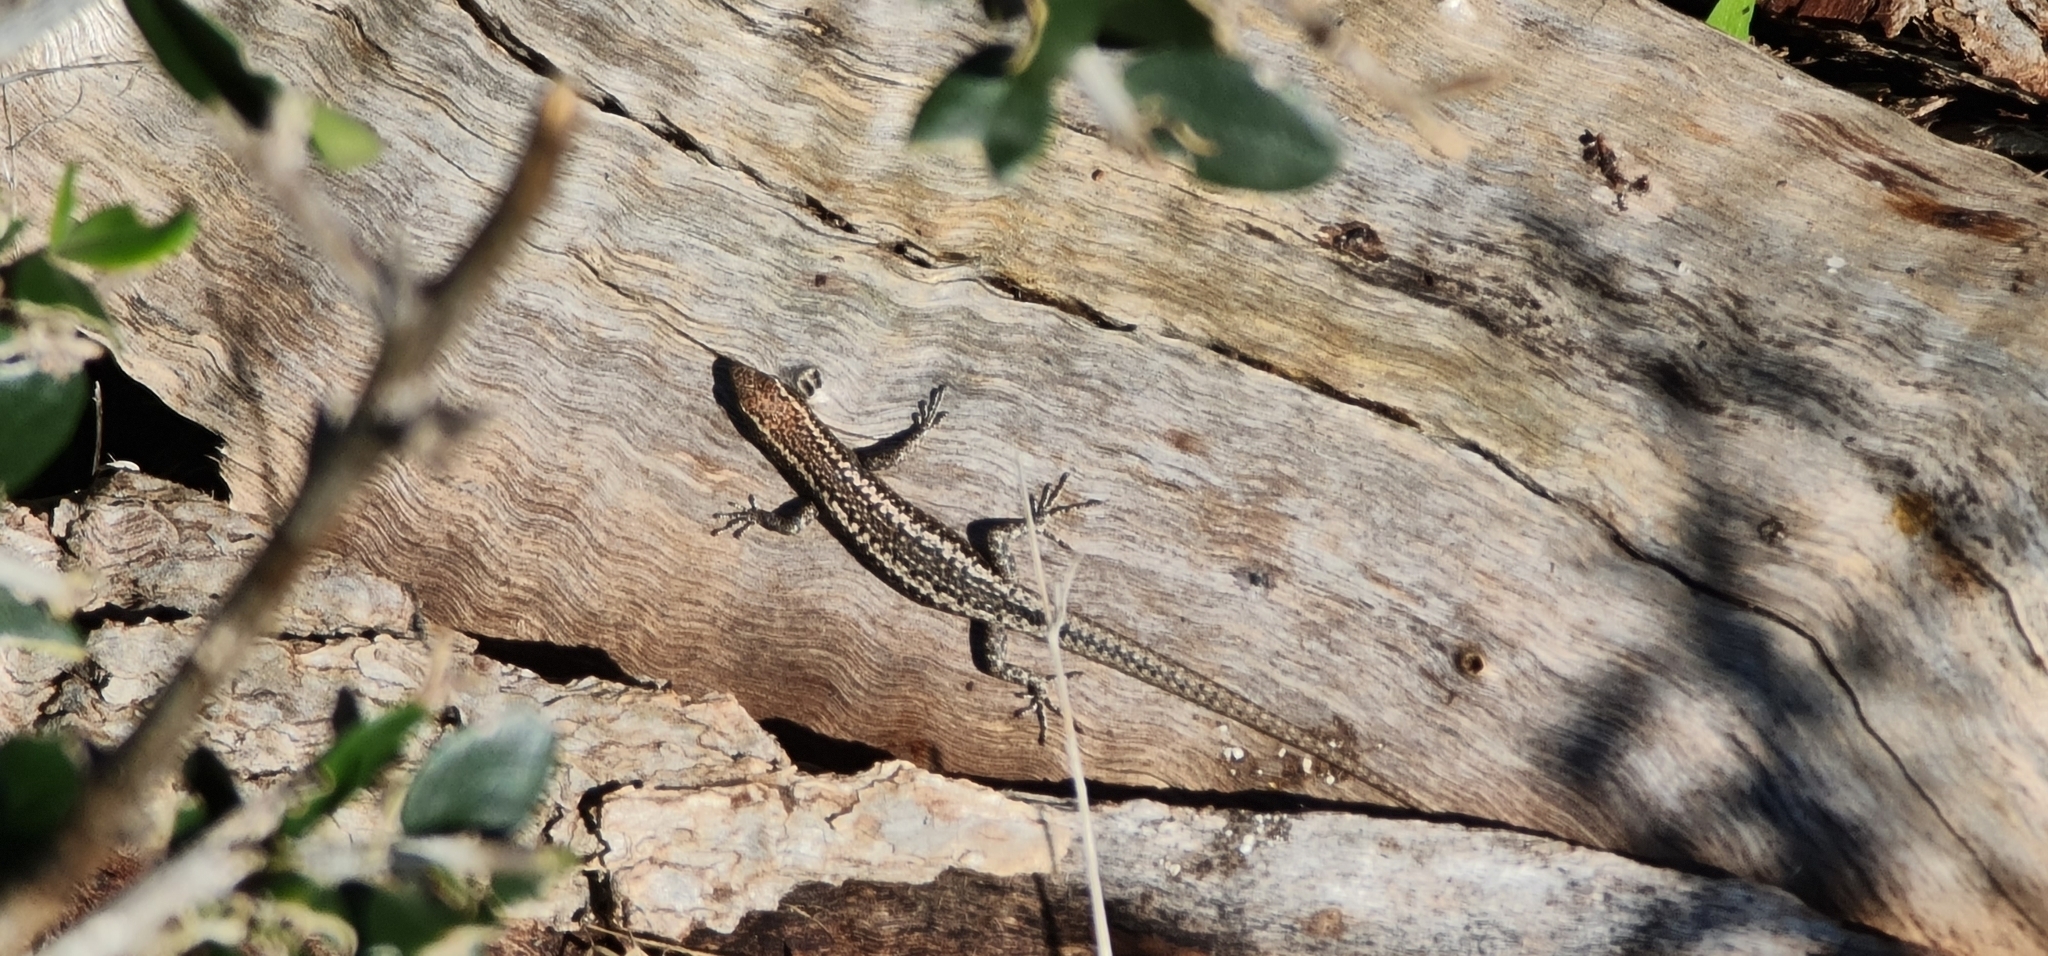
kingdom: Animalia
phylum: Chordata
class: Squamata
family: Scincidae
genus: Cryptoblepharus
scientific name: Cryptoblepharus pannosus
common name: Ragged snake-eyed skink
